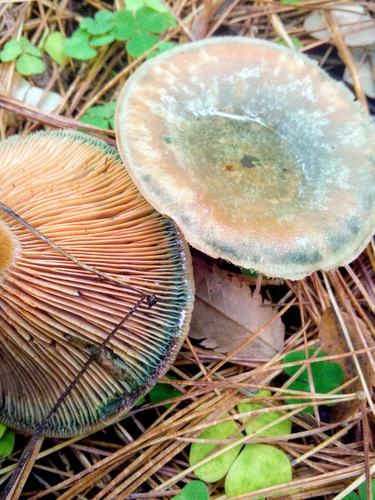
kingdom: Fungi
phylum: Basidiomycota
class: Agaricomycetes
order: Russulales
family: Russulaceae
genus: Lactarius
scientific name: Lactarius deliciosus
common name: Saffron milk-cap
